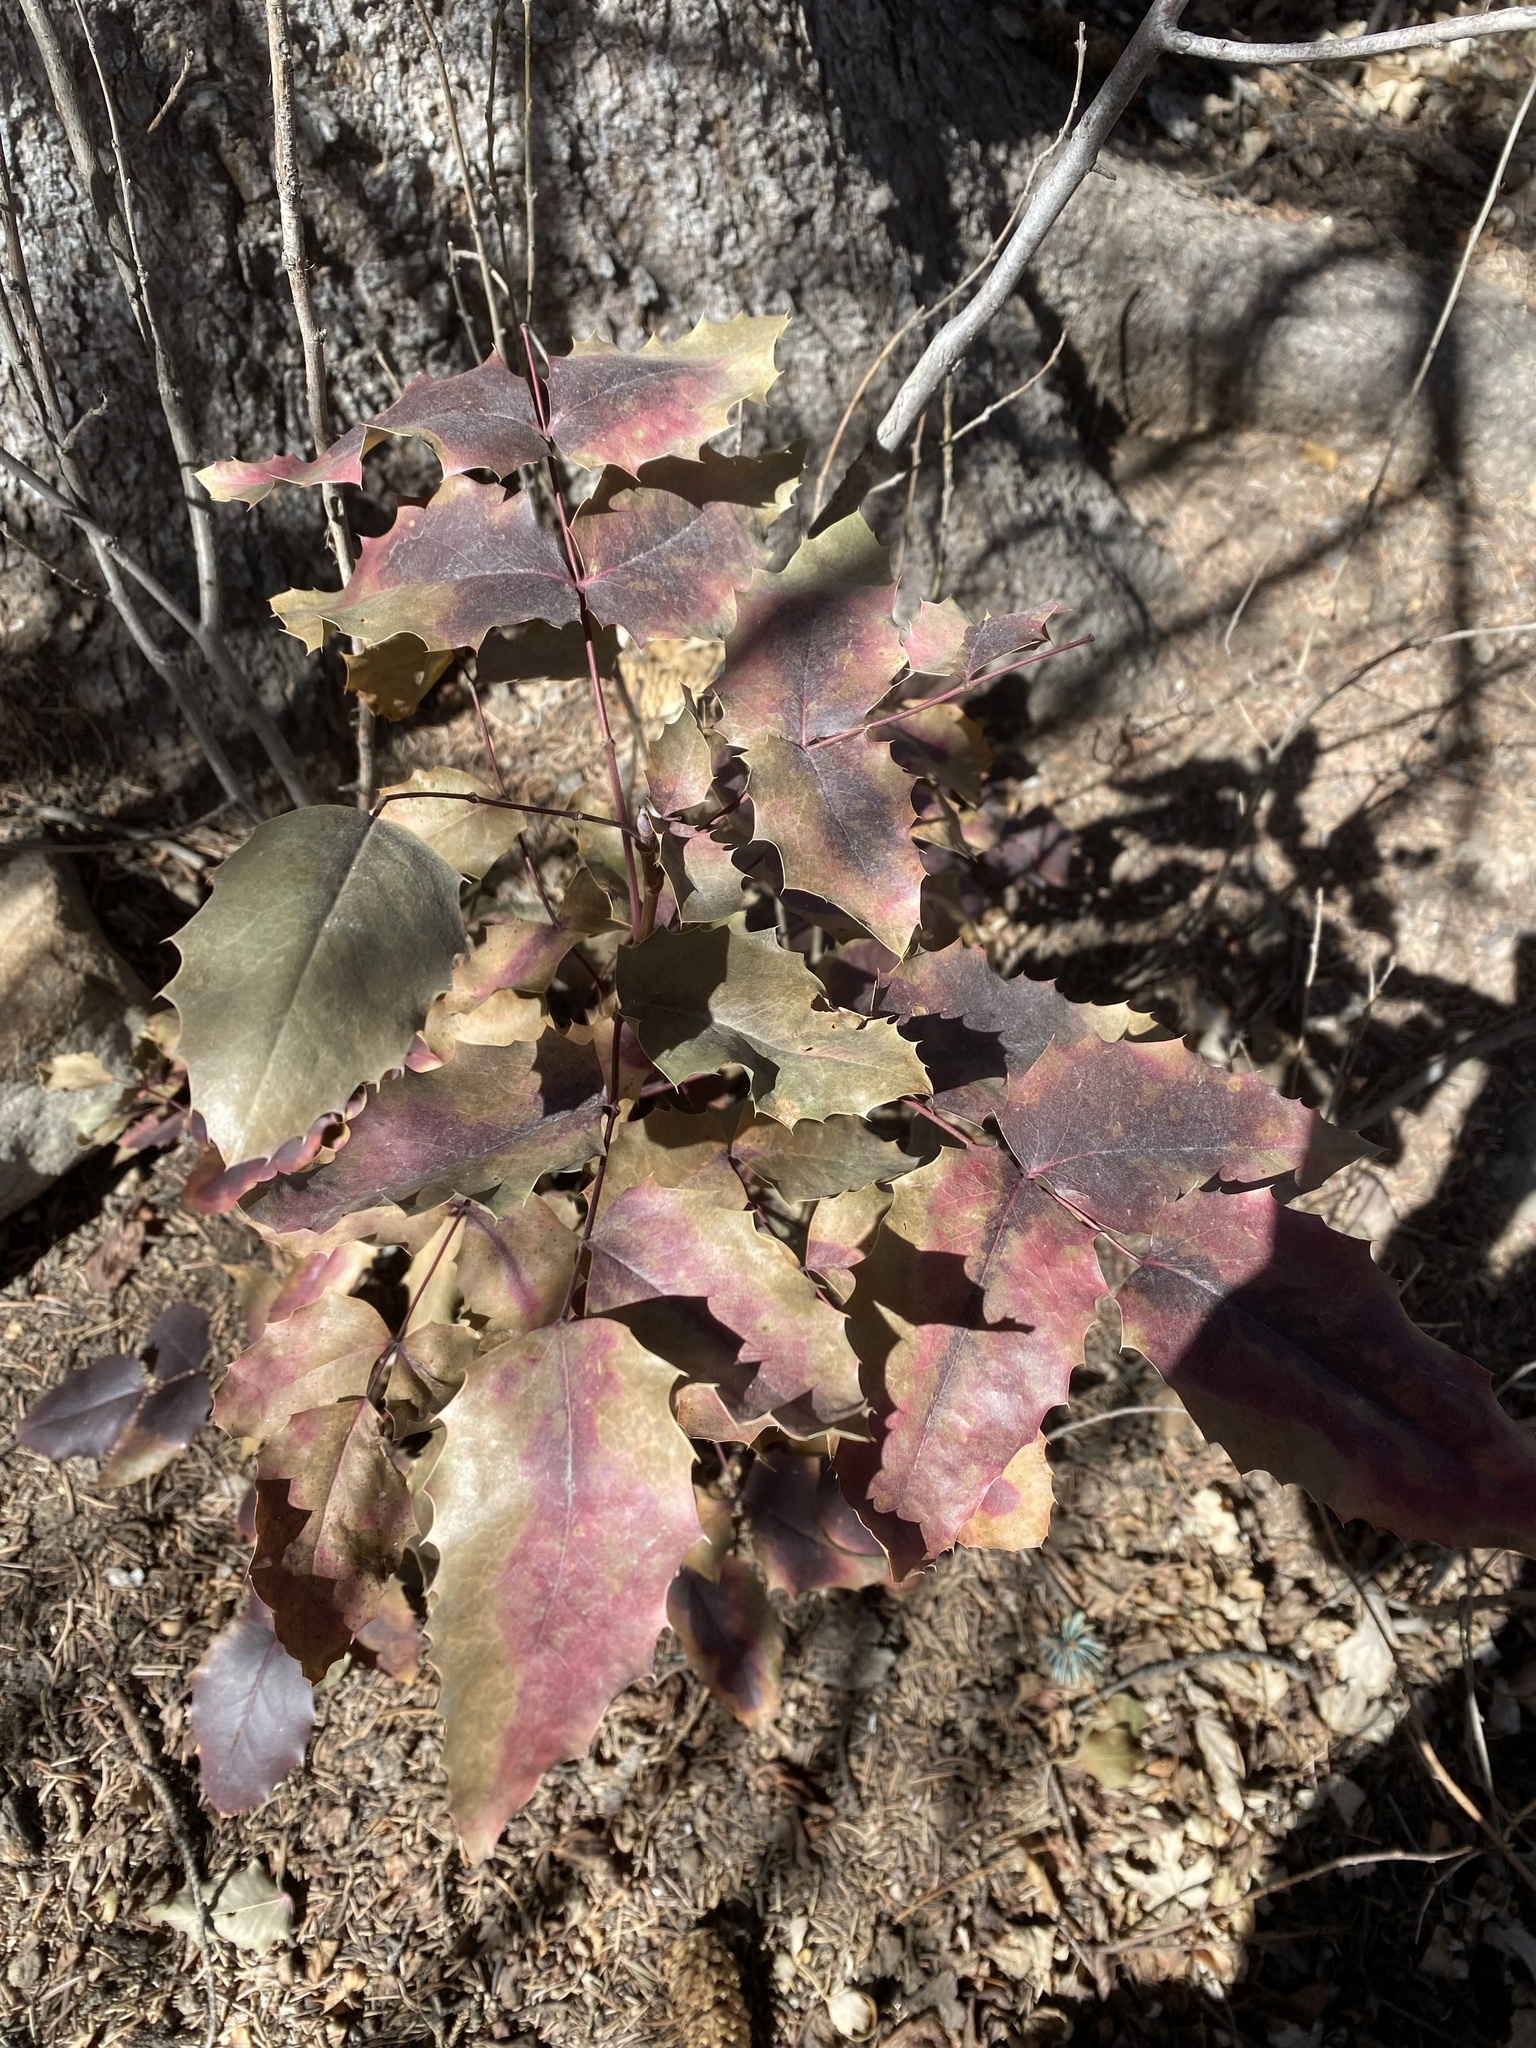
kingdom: Plantae
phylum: Tracheophyta
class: Magnoliopsida
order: Ranunculales
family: Berberidaceae
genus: Mahonia
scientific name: Mahonia repens
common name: Creeping oregon-grape
